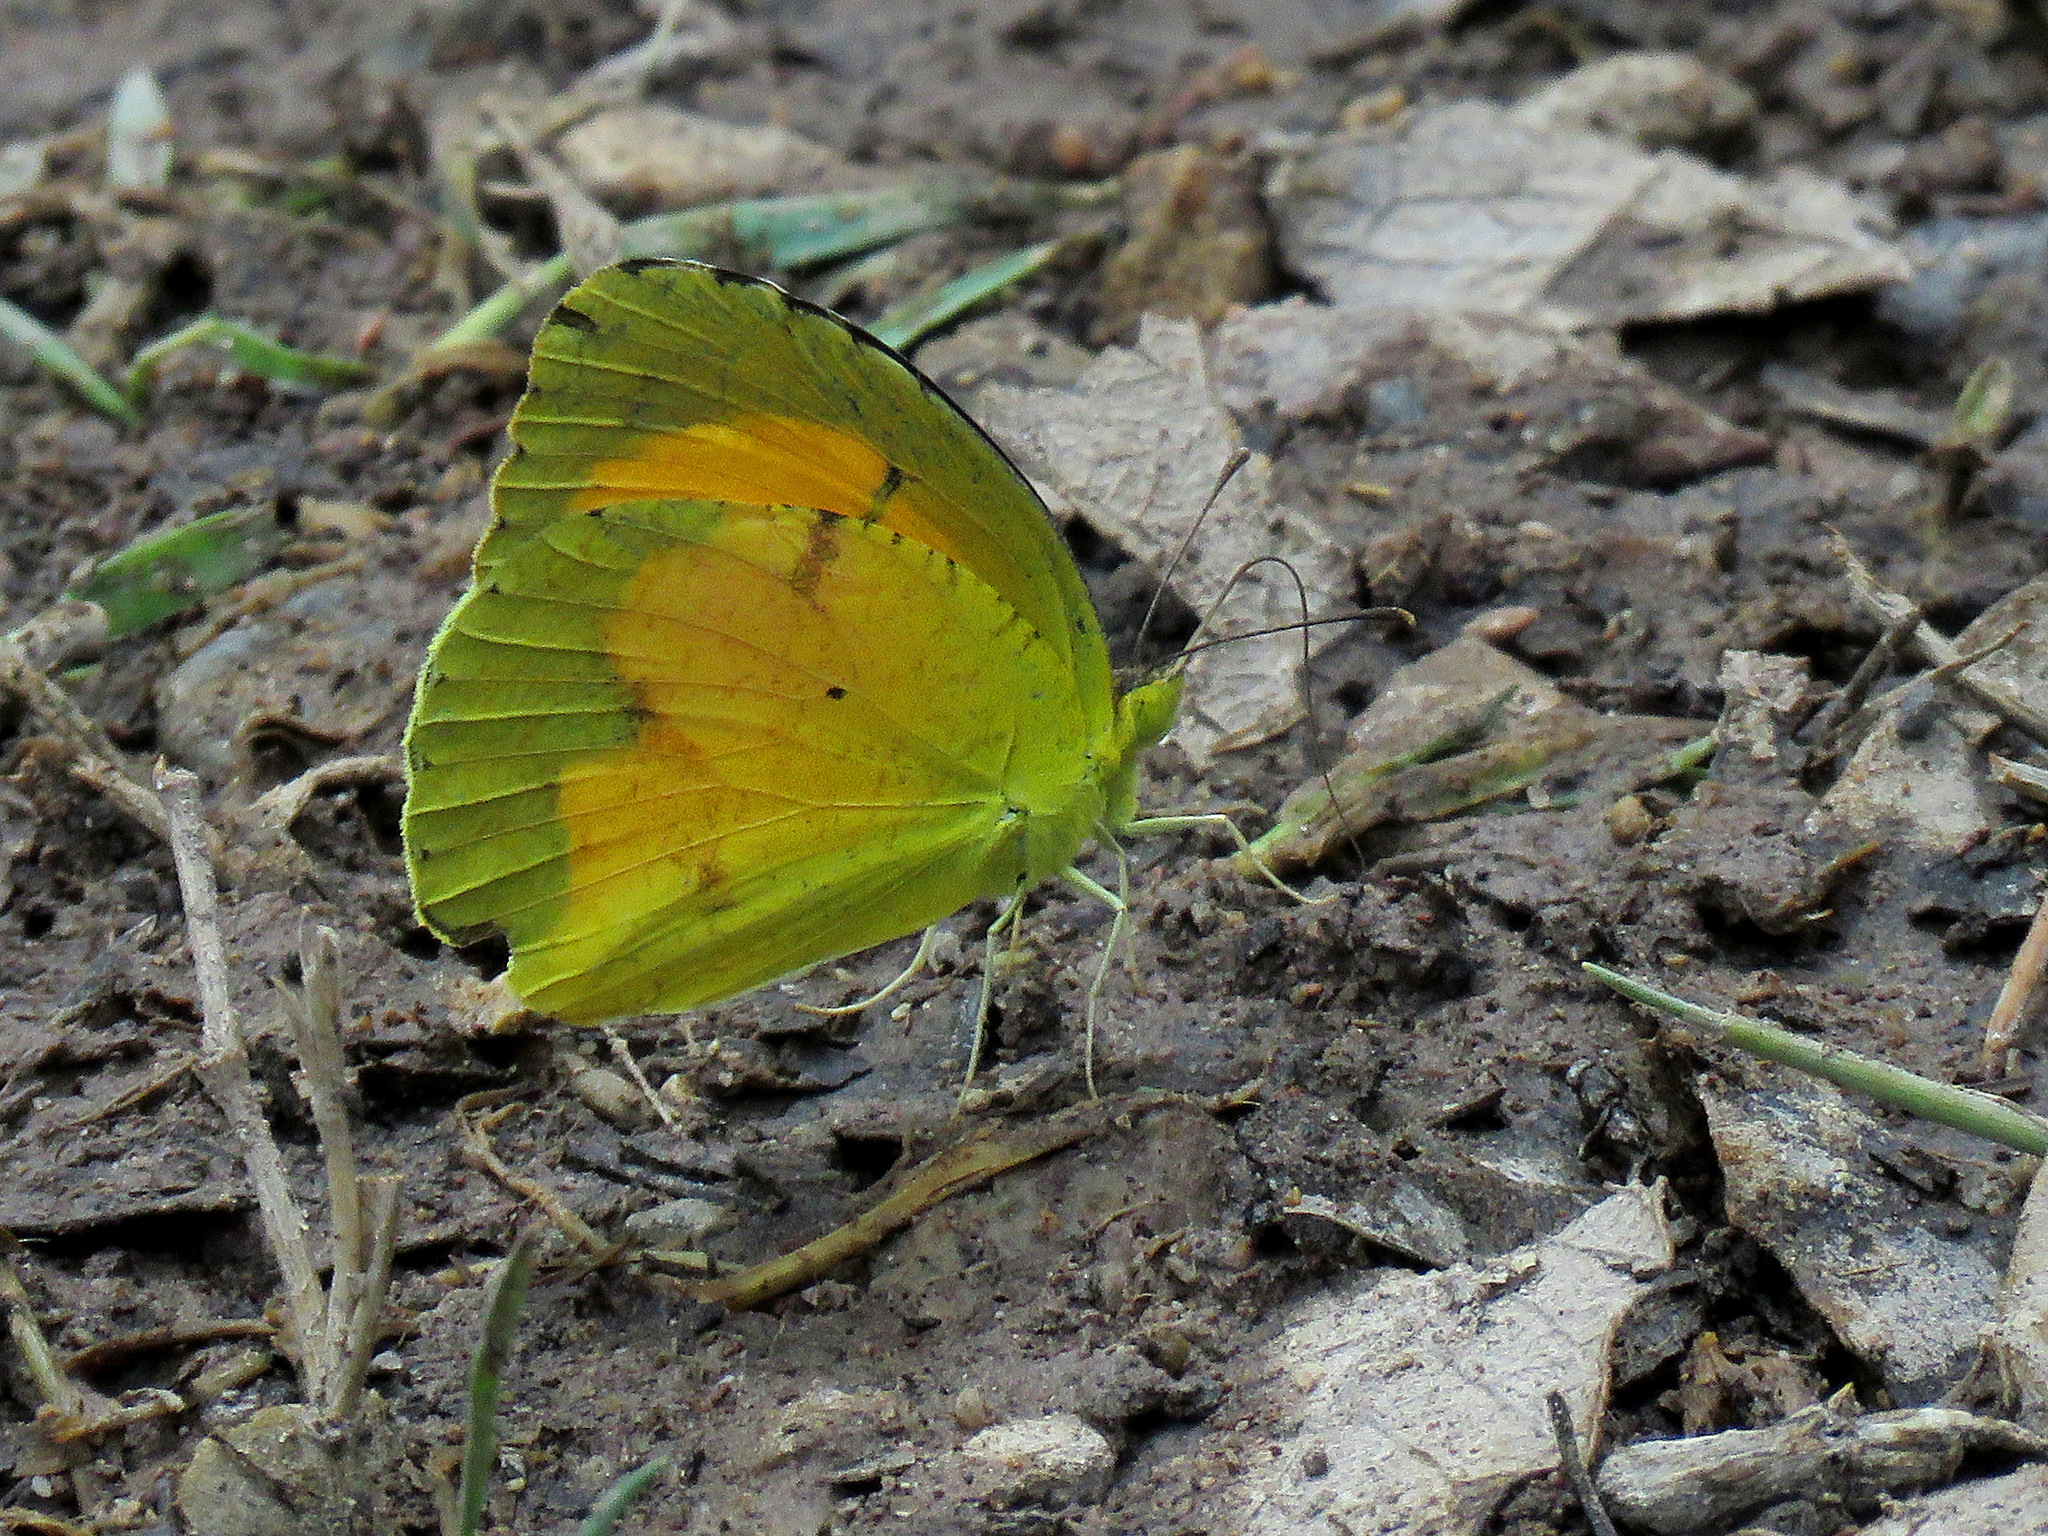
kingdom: Animalia
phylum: Arthropoda
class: Insecta
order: Lepidoptera
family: Pieridae
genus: Abaeis
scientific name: Abaeis nicippe
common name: Sleepy orange
